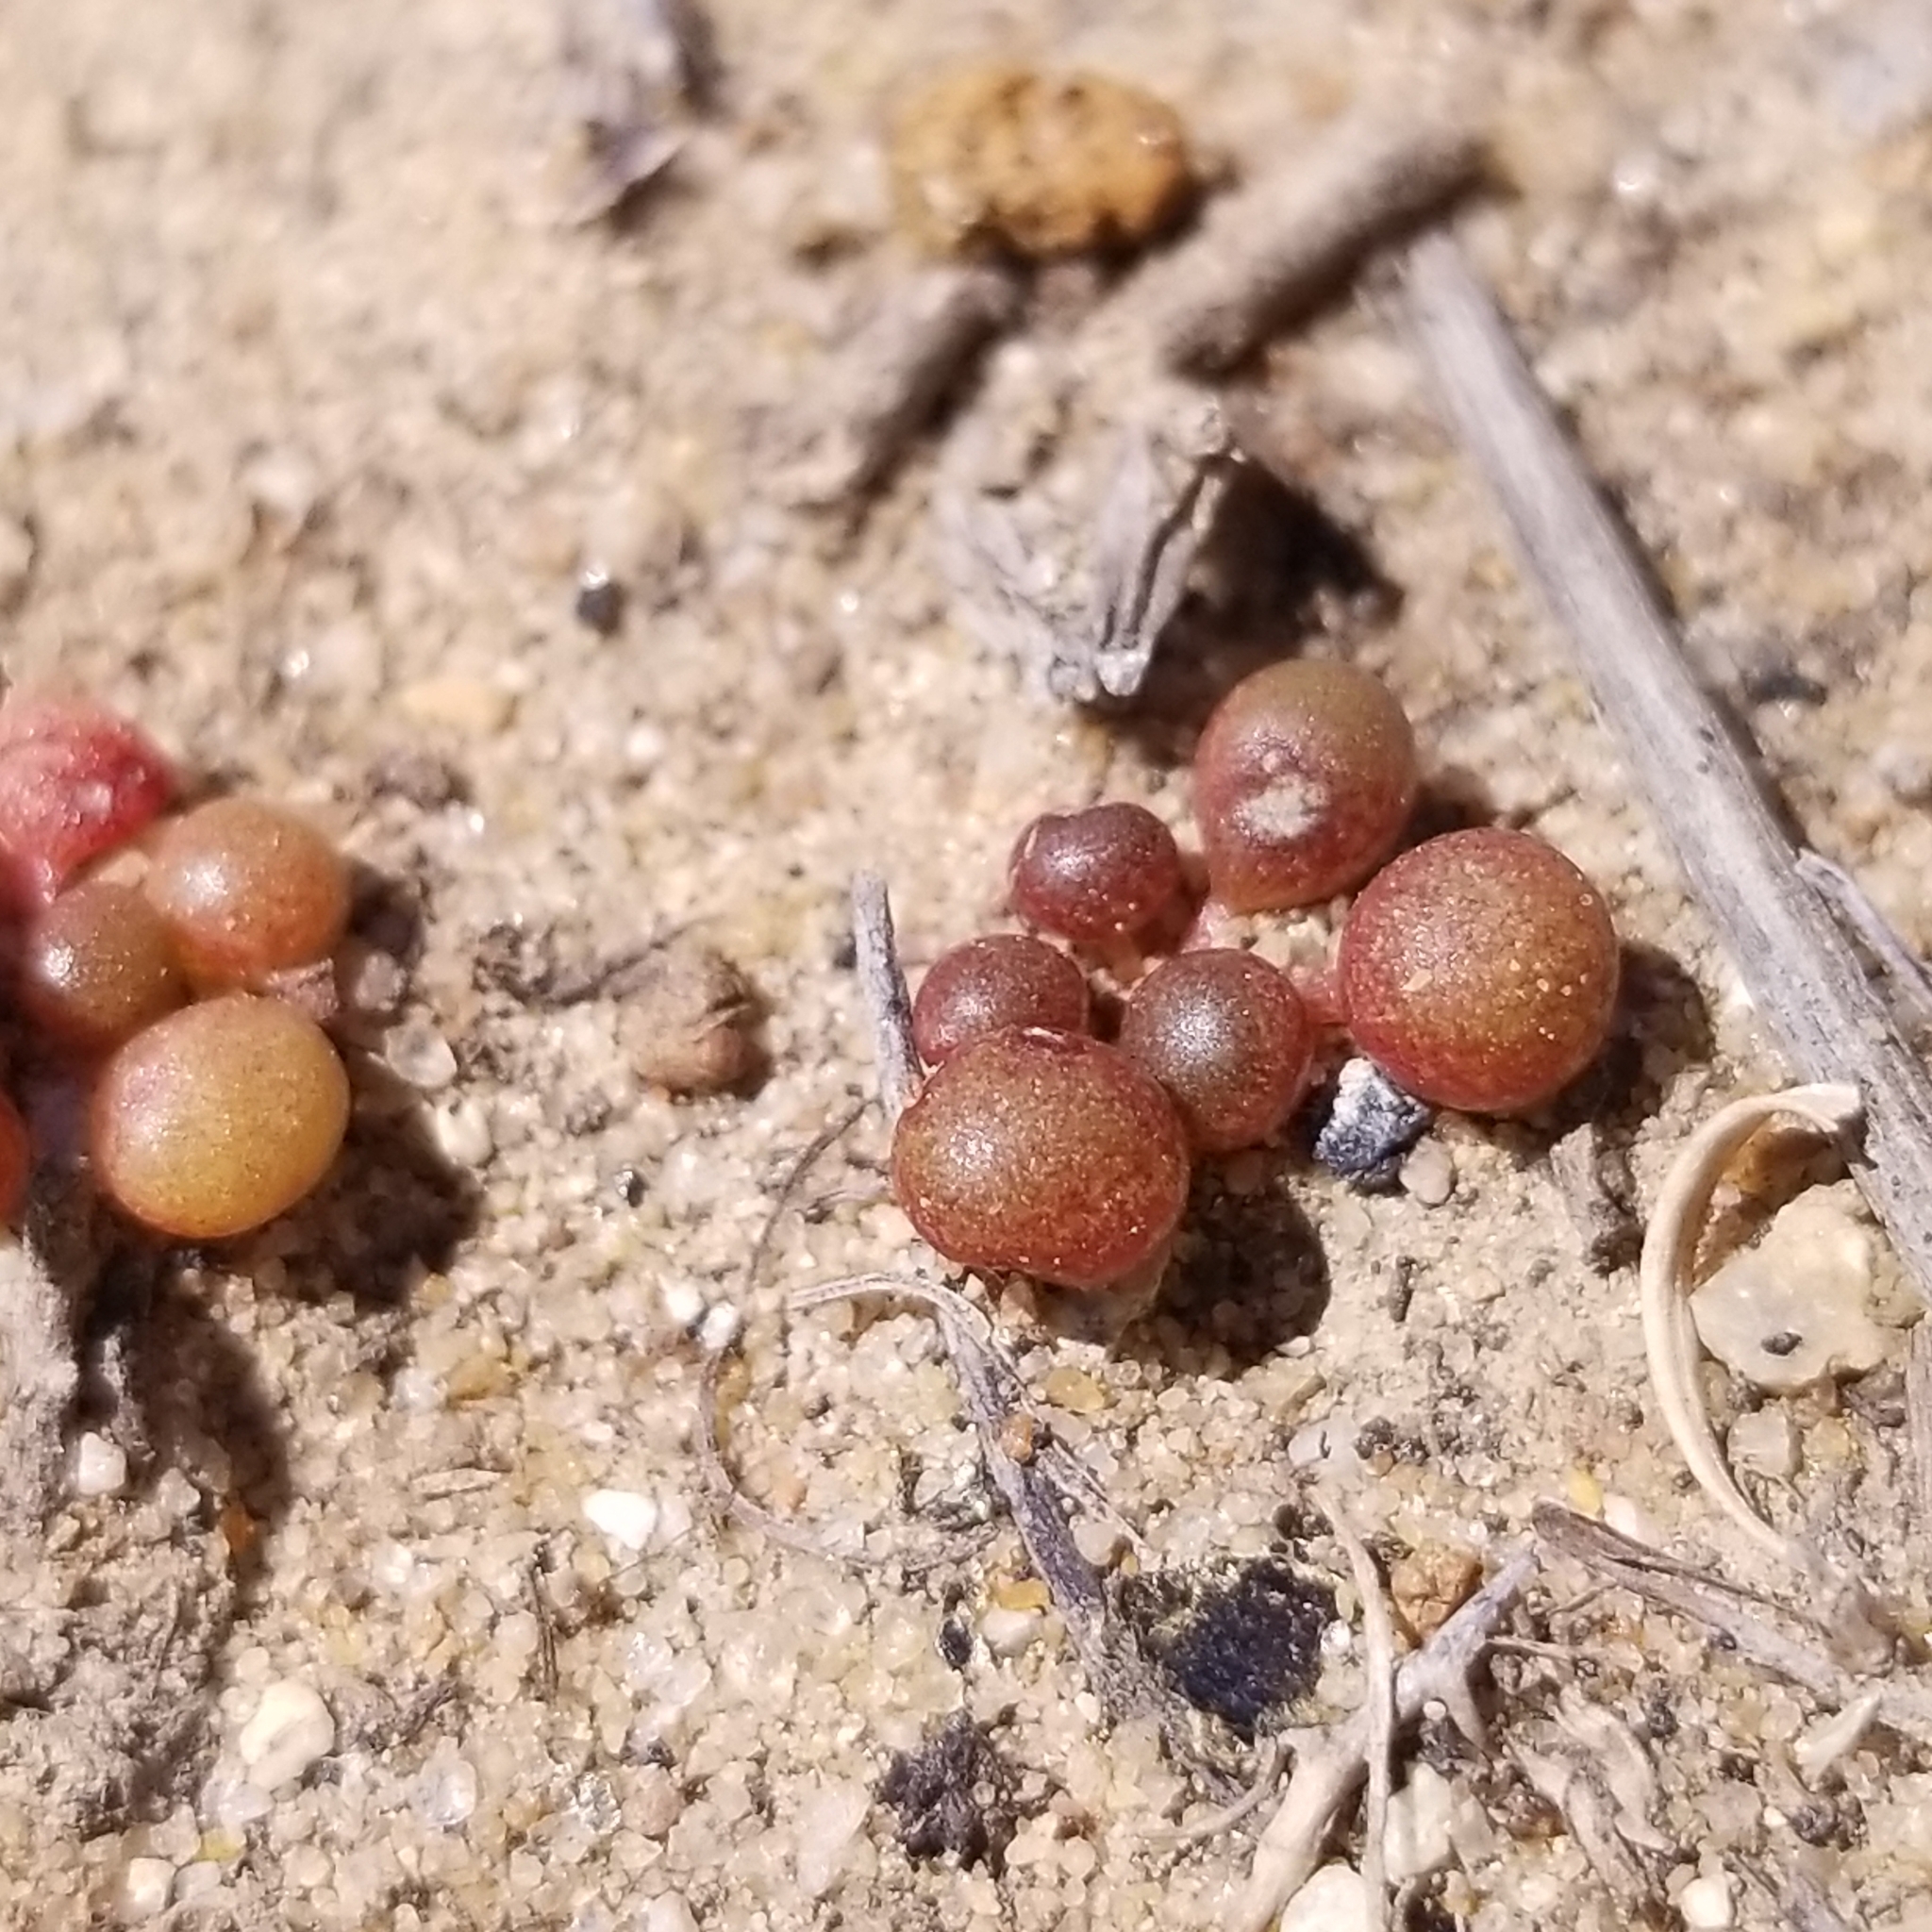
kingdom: Plantae
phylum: Tracheophyta
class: Magnoliopsida
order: Saxifragales
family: Crassulaceae
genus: Dudleya
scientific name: Dudleya blochmaniae
